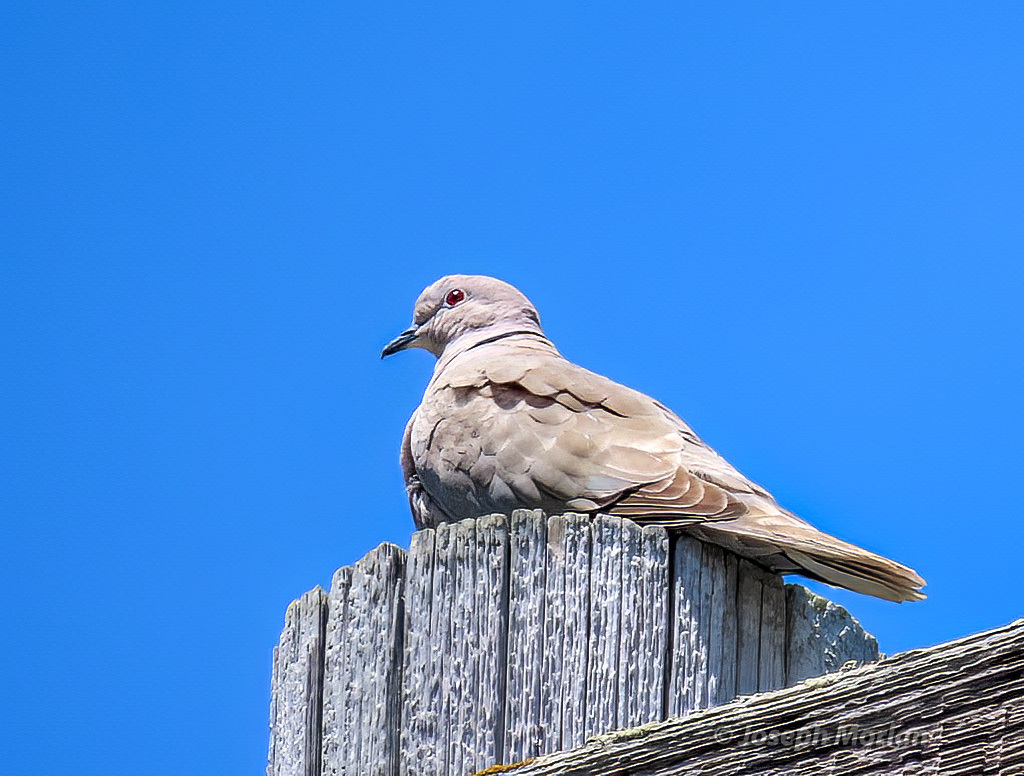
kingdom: Animalia
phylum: Chordata
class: Aves
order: Columbiformes
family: Columbidae
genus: Streptopelia
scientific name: Streptopelia decaocto
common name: Eurasian collared dove
